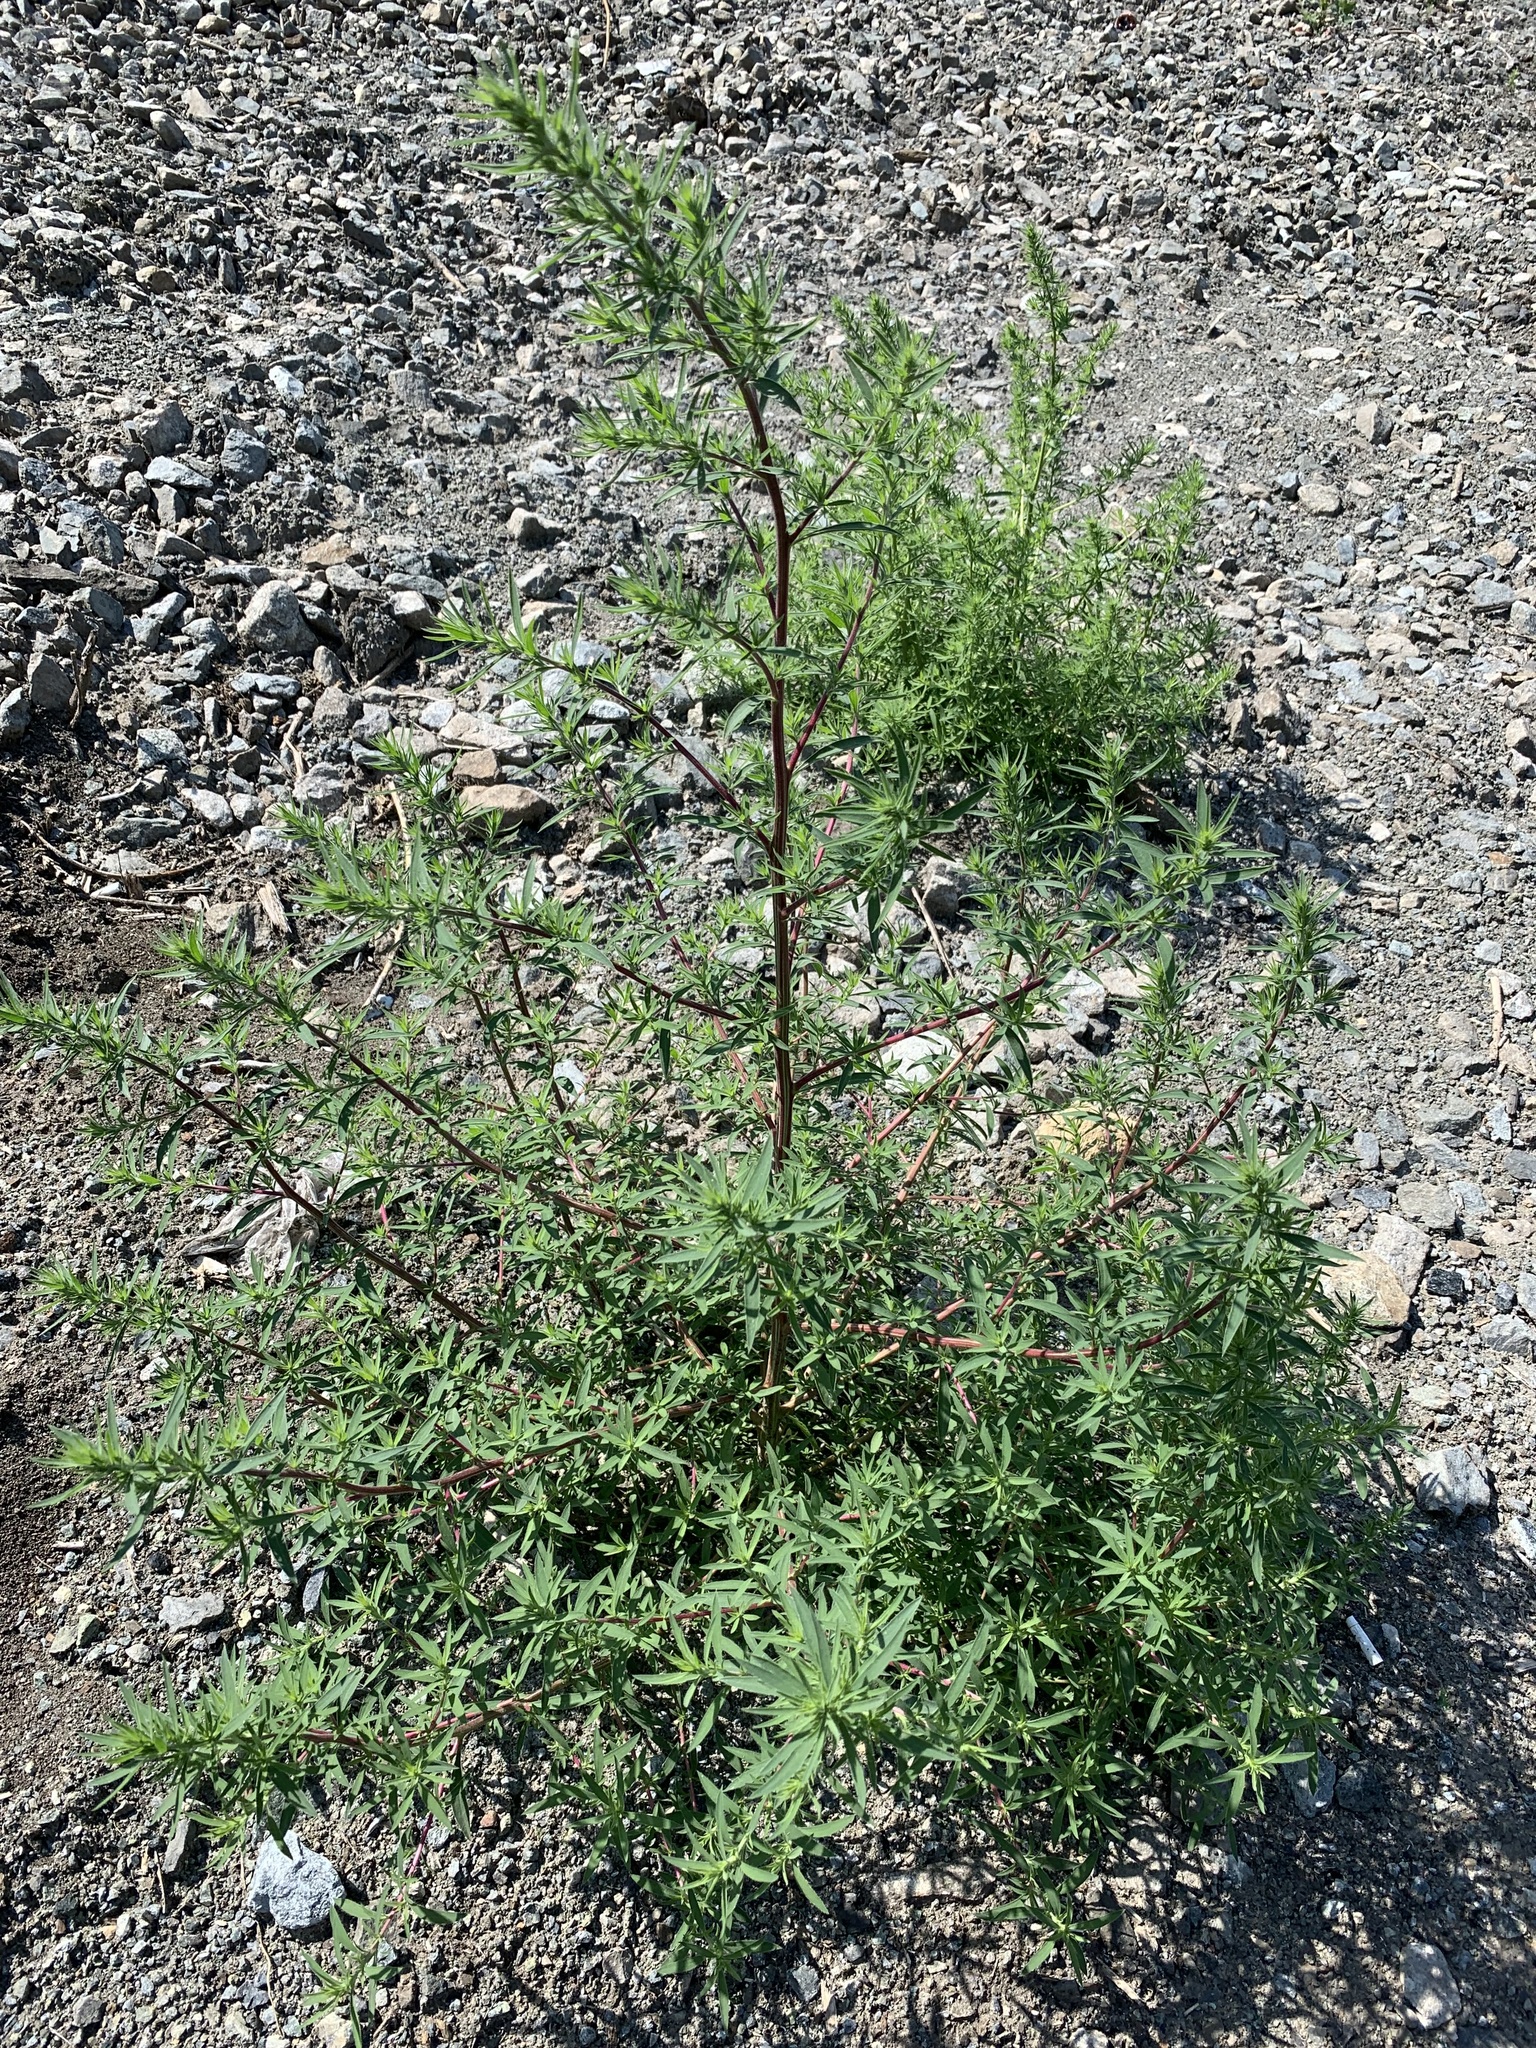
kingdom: Plantae
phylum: Tracheophyta
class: Magnoliopsida
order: Caryophyllales
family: Amaranthaceae
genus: Bassia
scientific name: Bassia scoparia
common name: Belvedere
